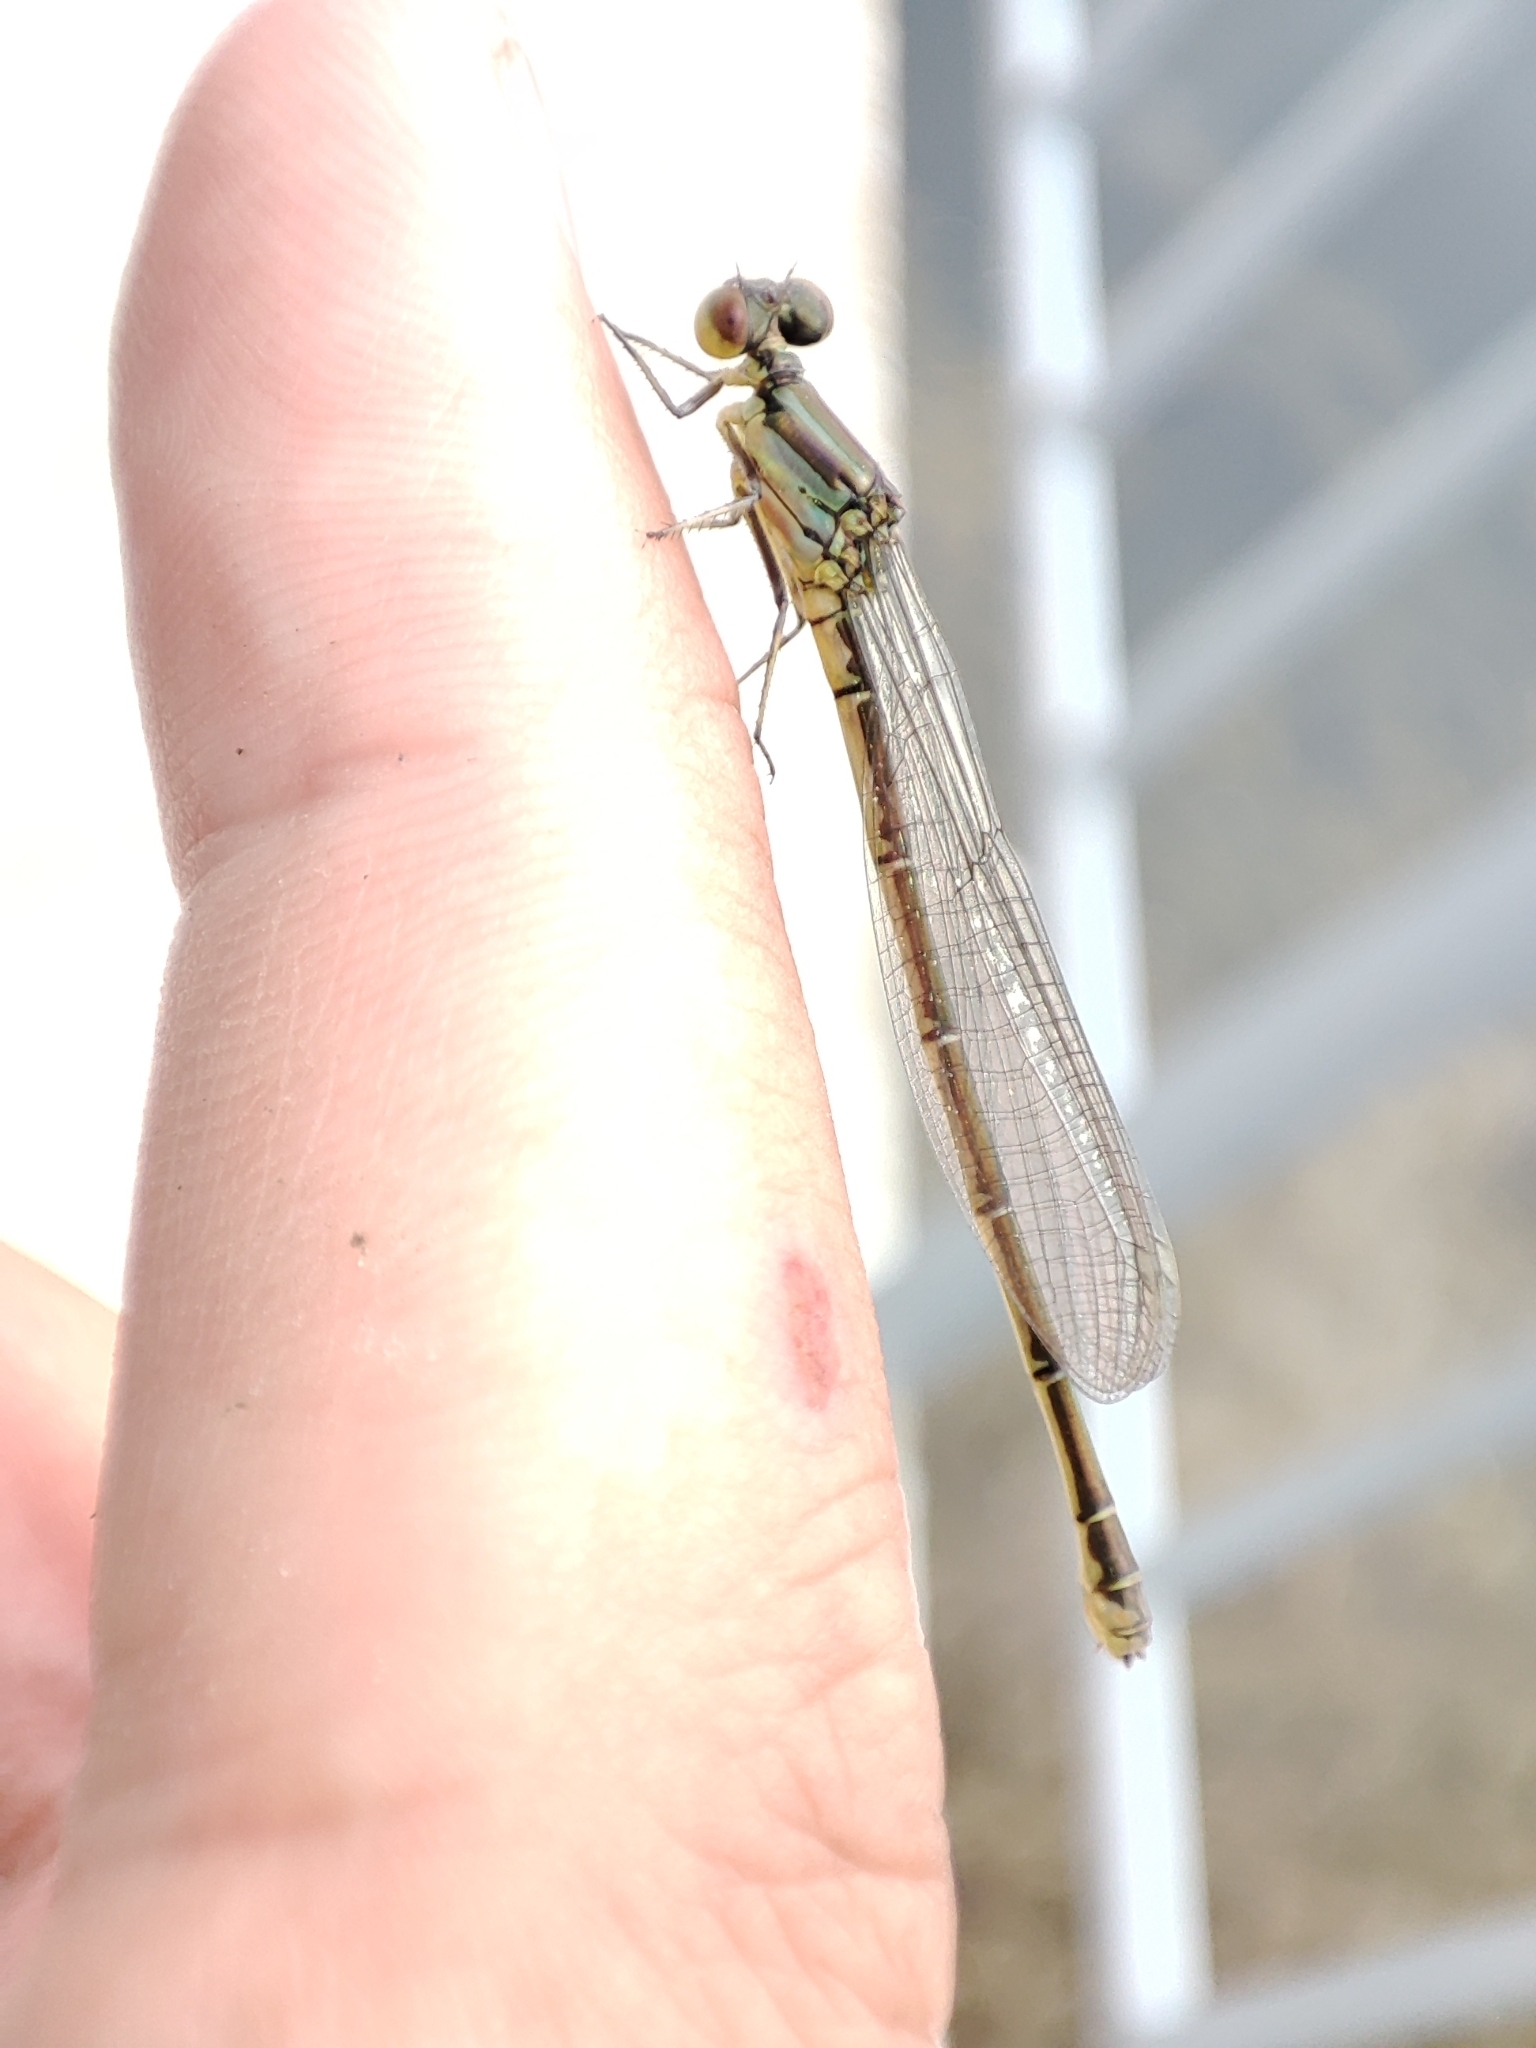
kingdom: Animalia
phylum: Arthropoda
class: Insecta
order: Odonata
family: Coenagrionidae
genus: Erythromma
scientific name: Erythromma viridulum
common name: Small red-eyed damselfly
